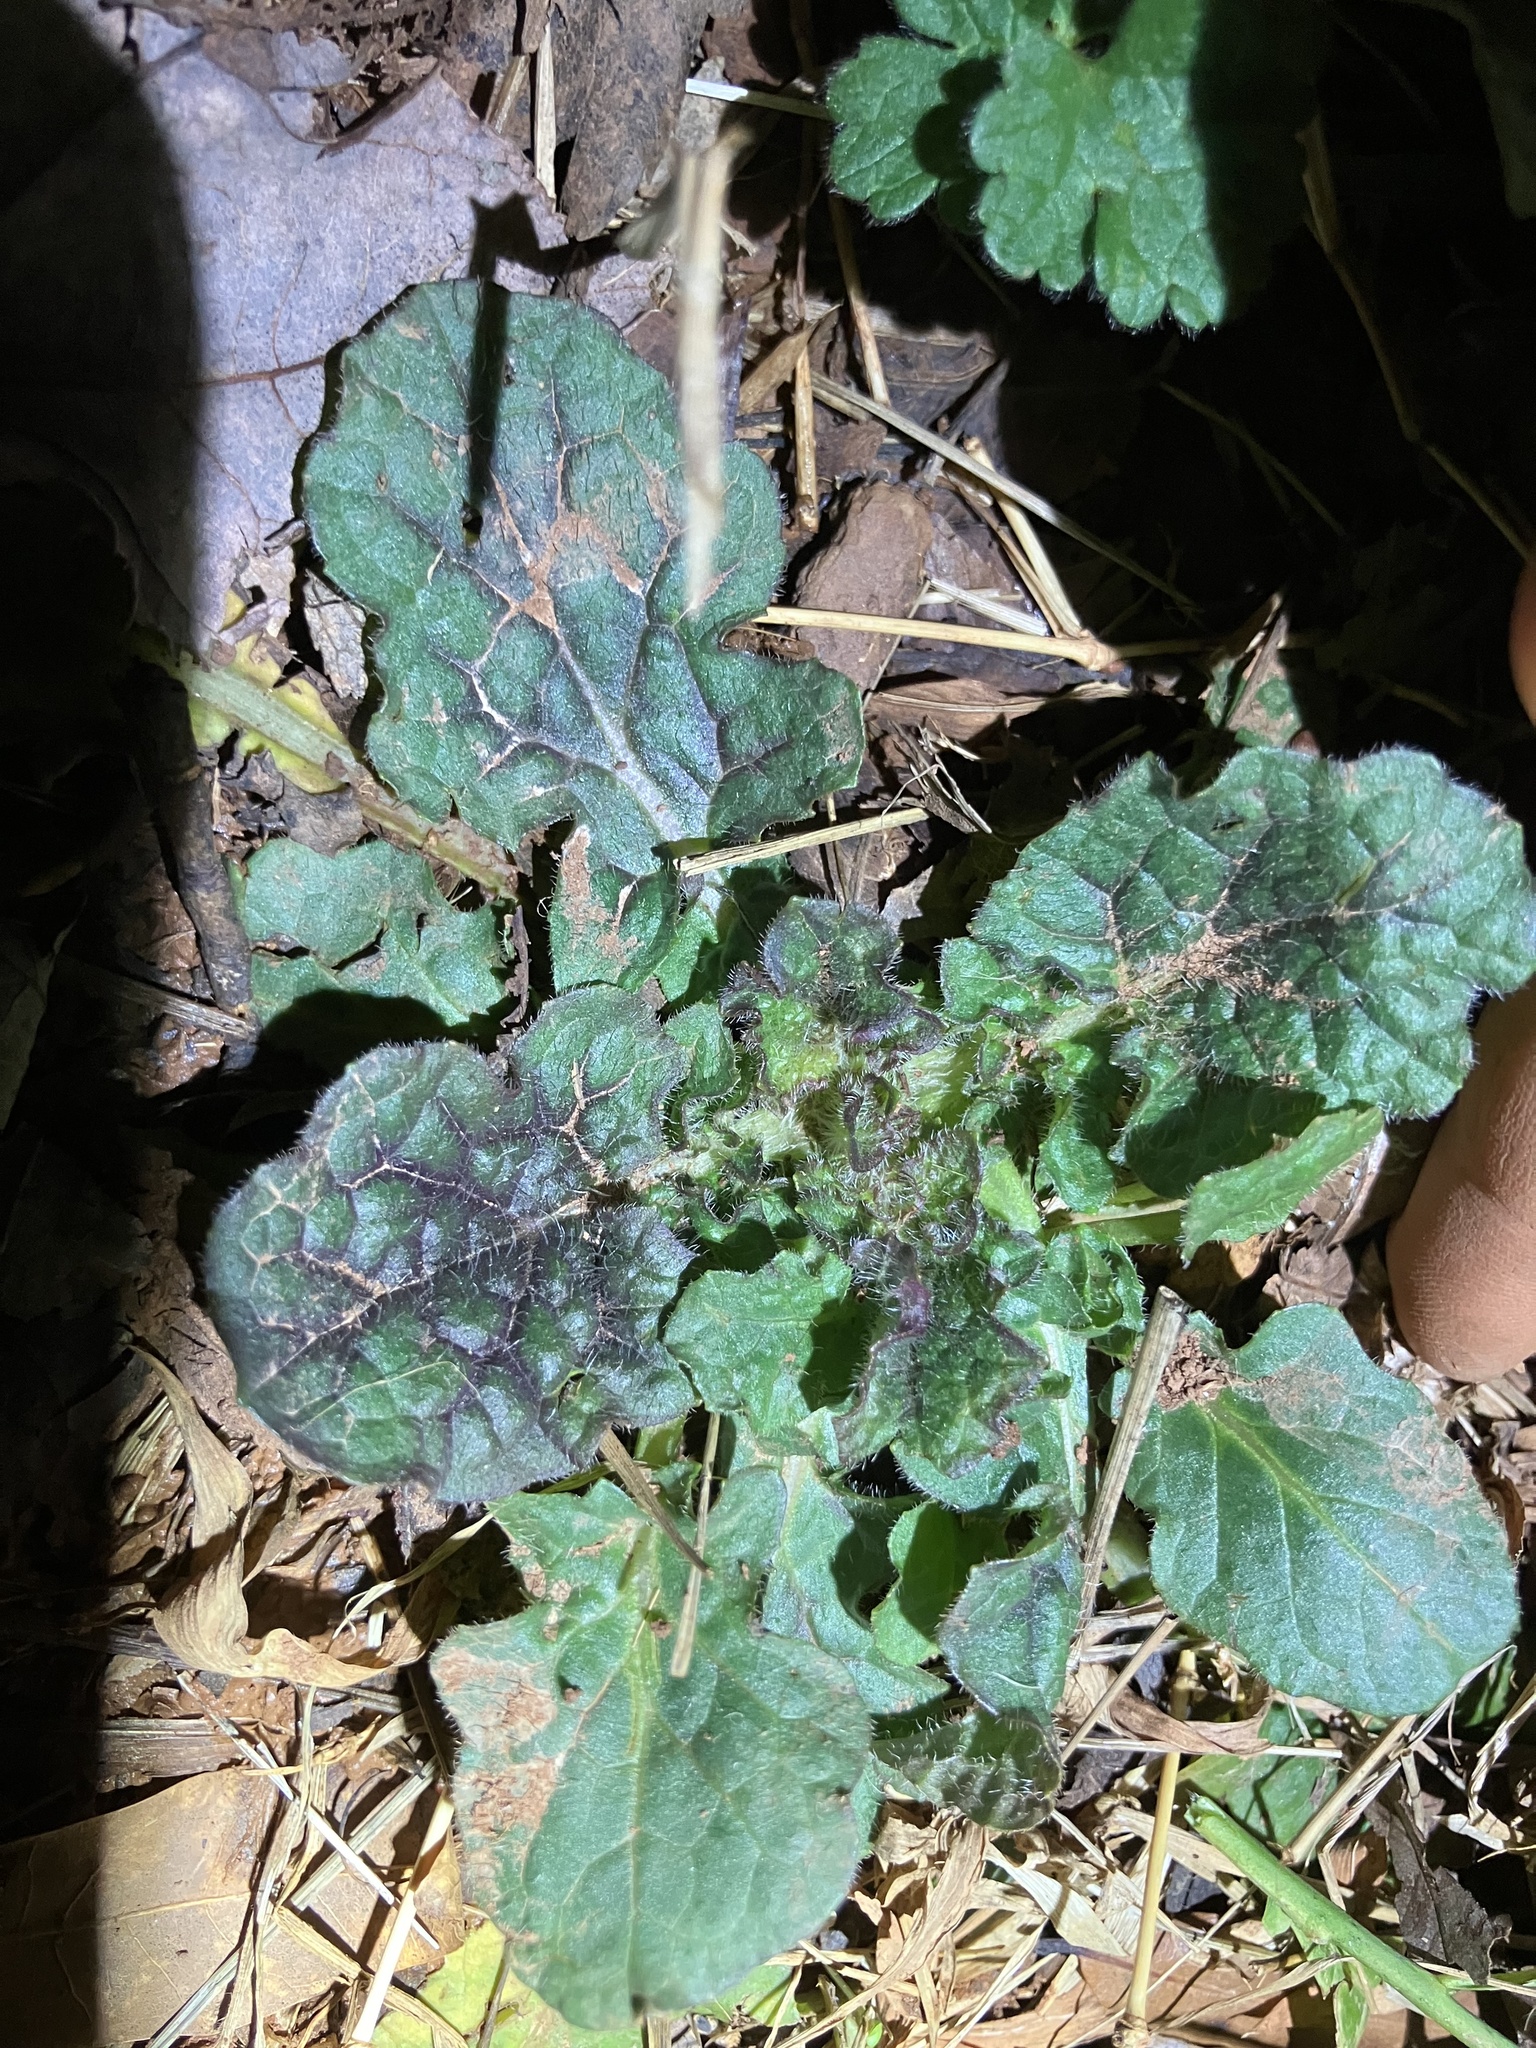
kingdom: Plantae
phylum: Tracheophyta
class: Magnoliopsida
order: Lamiales
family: Lamiaceae
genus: Salvia
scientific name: Salvia lyrata
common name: Cancerweed
